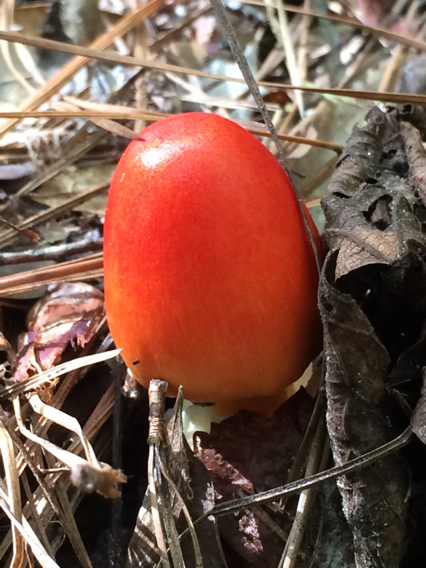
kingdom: Fungi
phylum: Basidiomycota
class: Agaricomycetes
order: Agaricales
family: Amanitaceae
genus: Amanita
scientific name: Amanita jacksonii
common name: Jackson's slender caesar
